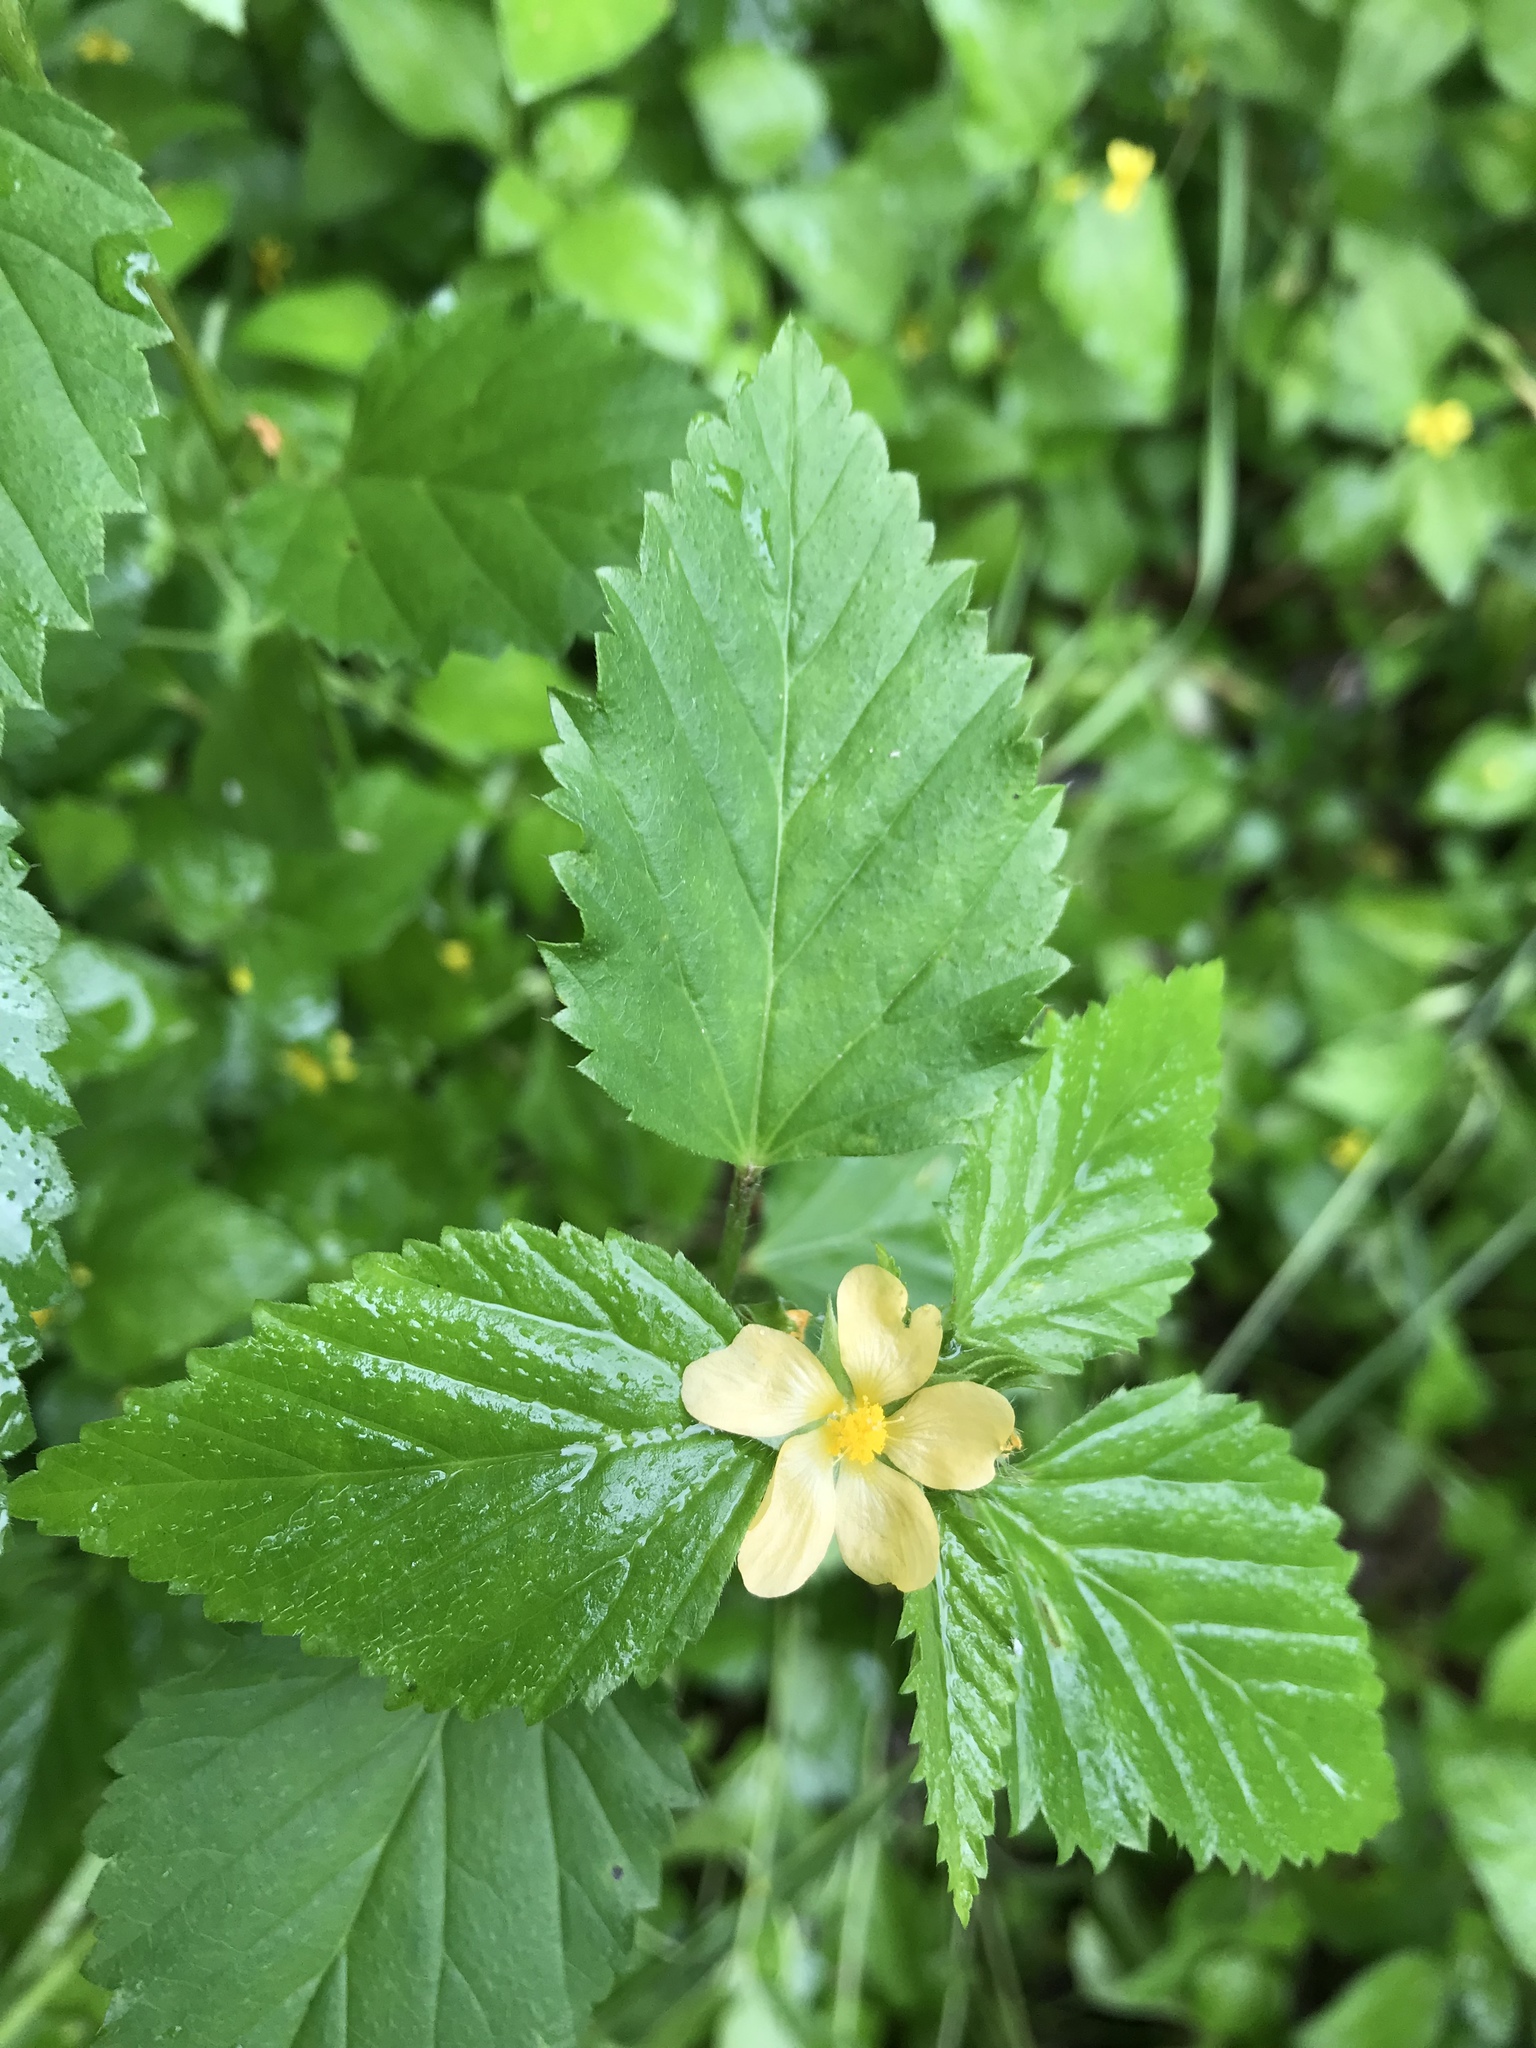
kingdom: Plantae
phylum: Tracheophyta
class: Magnoliopsida
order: Malvales
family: Malvaceae
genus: Malvastrum
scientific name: Malvastrum coromandelianum
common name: Threelobe false mallow
